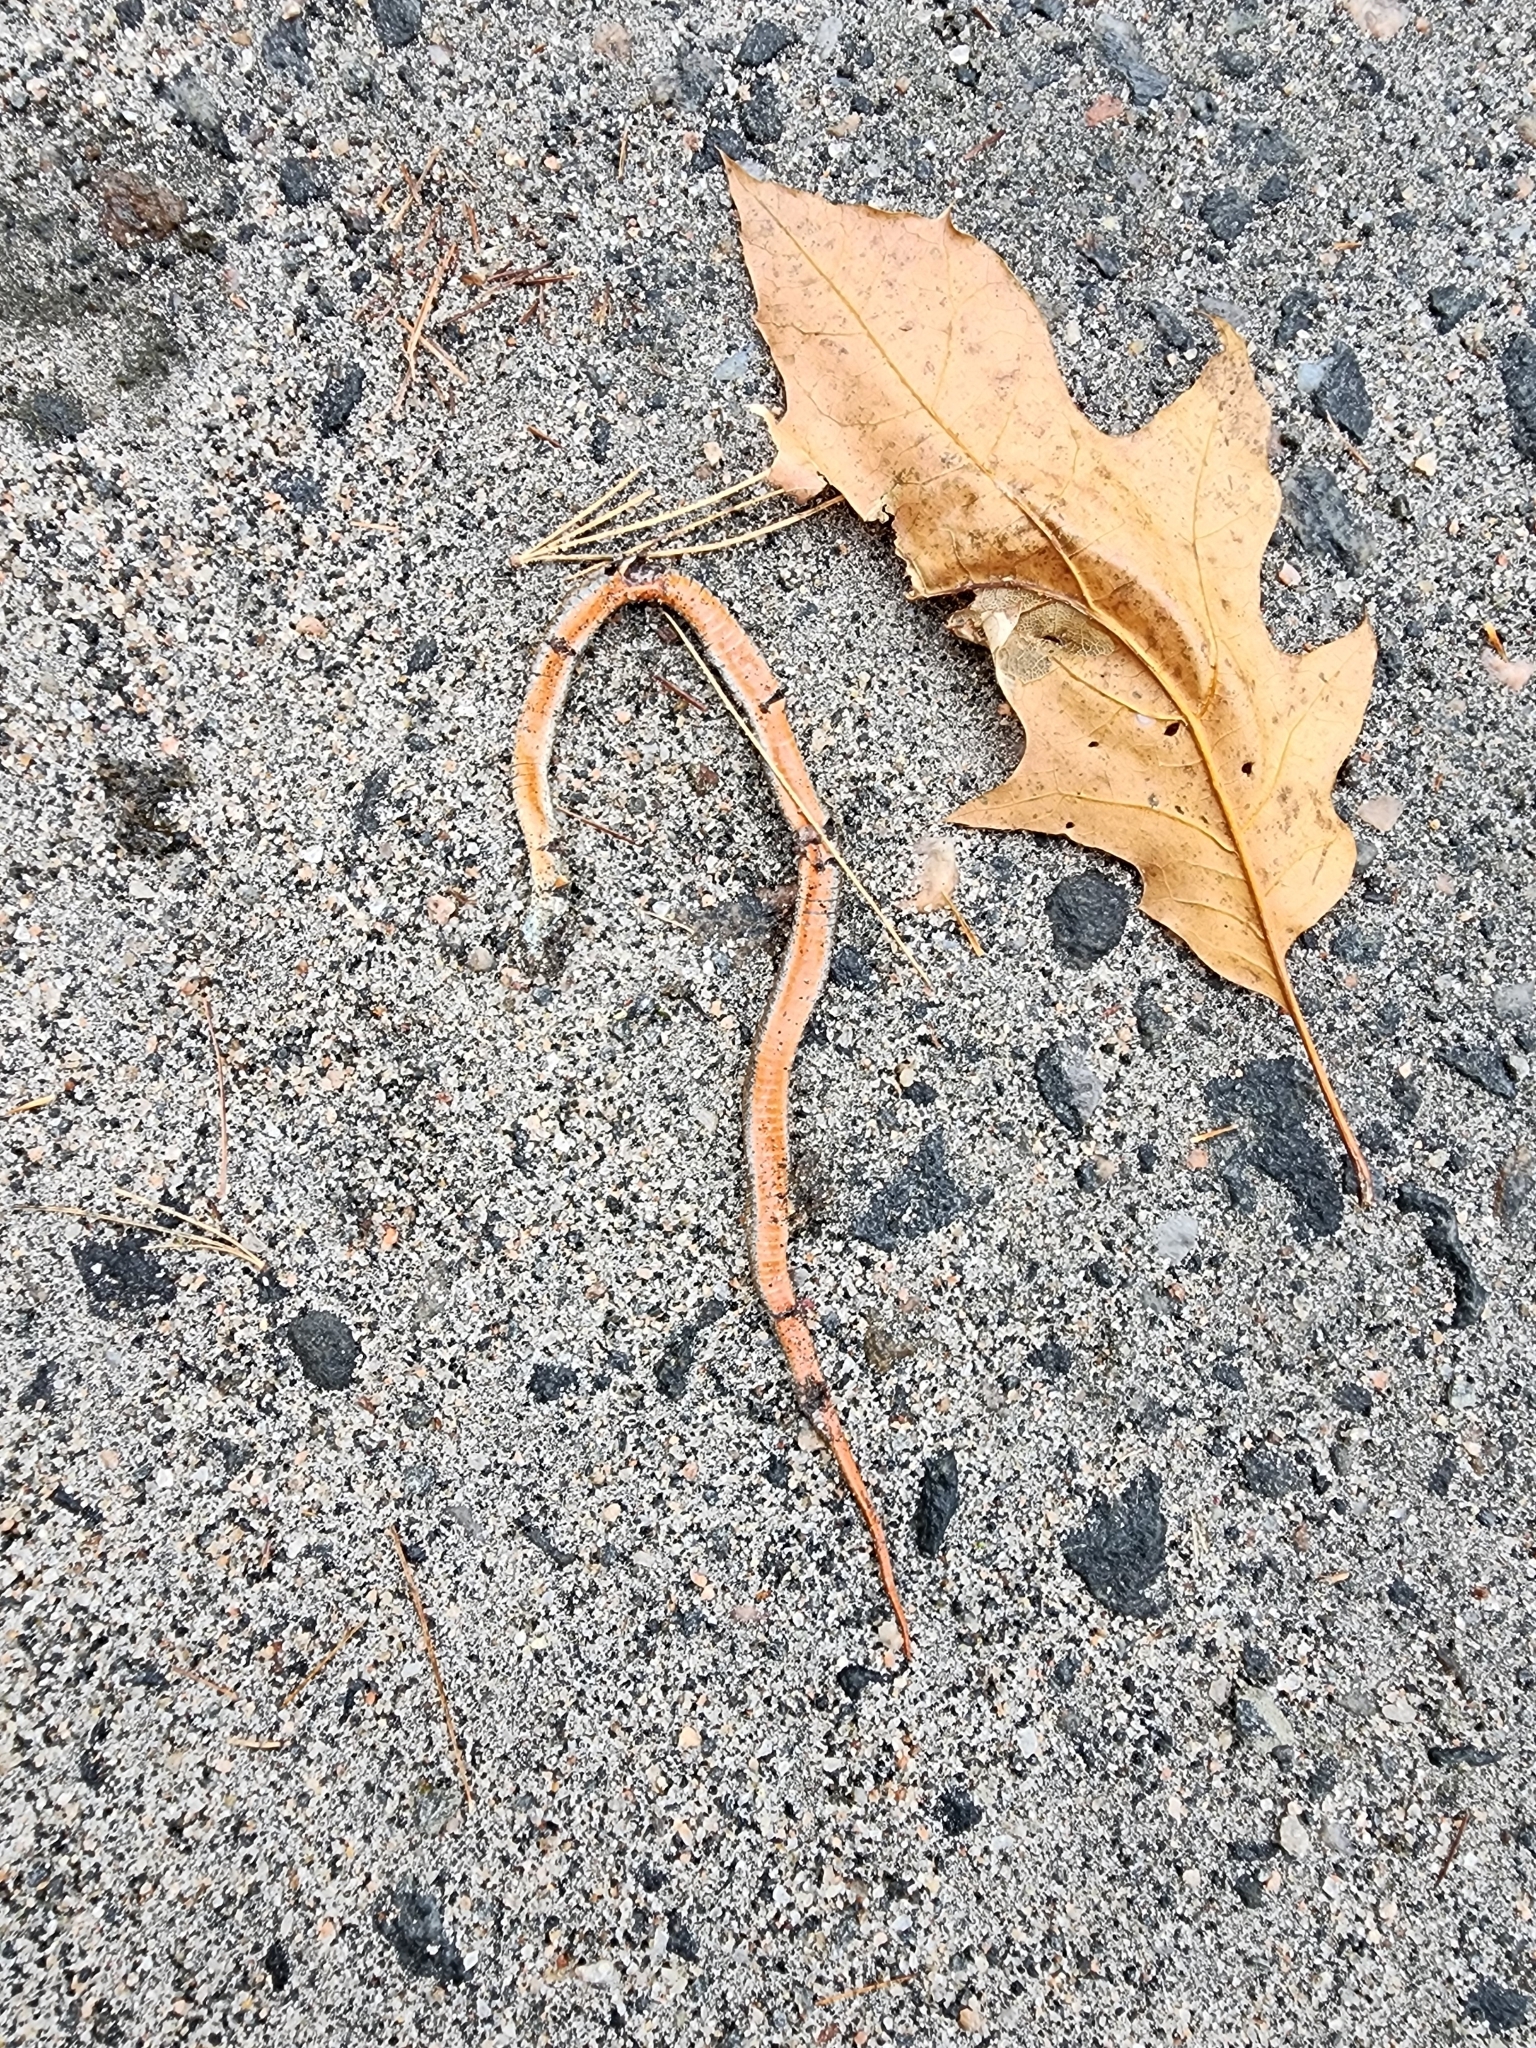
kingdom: Animalia
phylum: Chordata
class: Squamata
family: Colubridae
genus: Storeria
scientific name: Storeria occipitomaculata
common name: Redbelly snake
